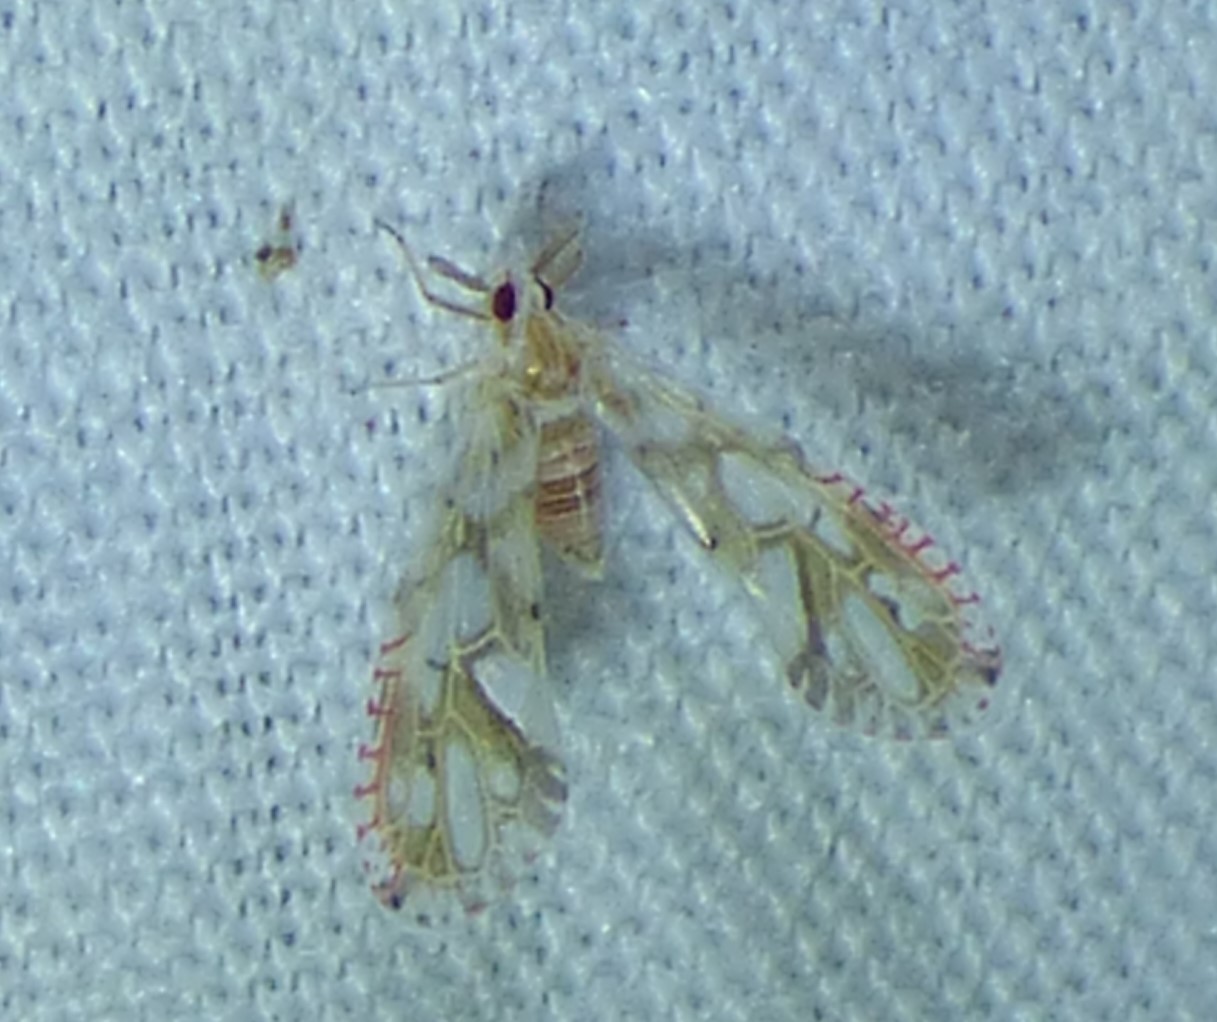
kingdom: Animalia
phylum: Arthropoda
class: Insecta
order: Hemiptera
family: Derbidae
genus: Anotia
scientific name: Anotia kirkaldyi
